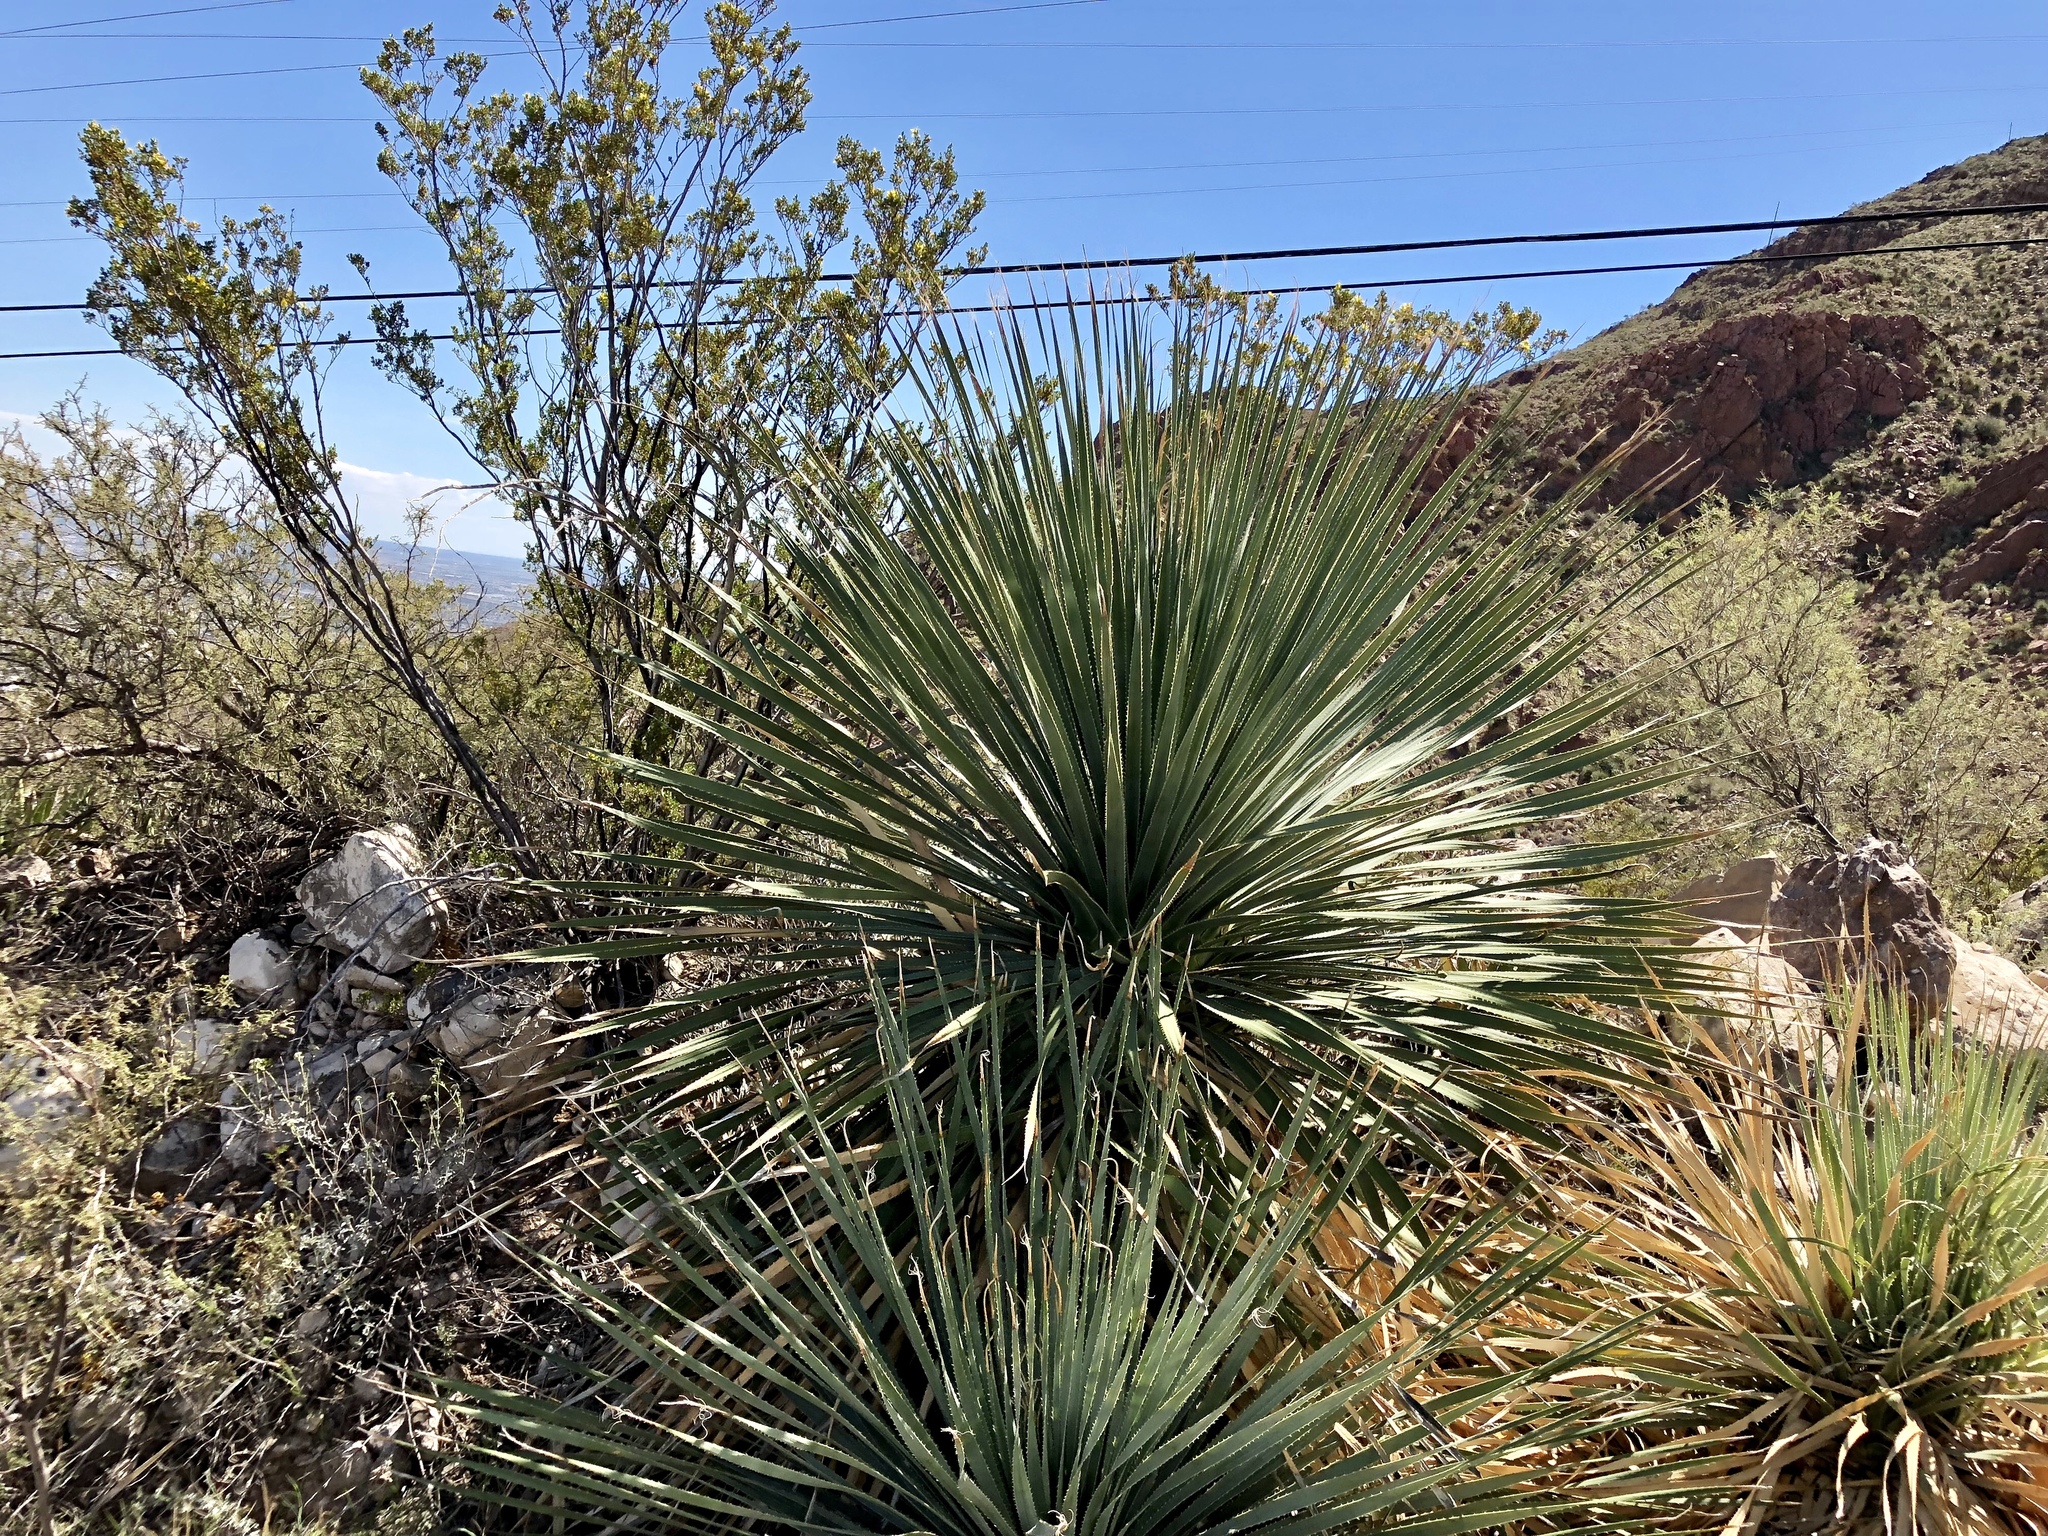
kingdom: Plantae
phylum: Tracheophyta
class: Liliopsida
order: Asparagales
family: Asparagaceae
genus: Dasylirion
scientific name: Dasylirion wheeleri
